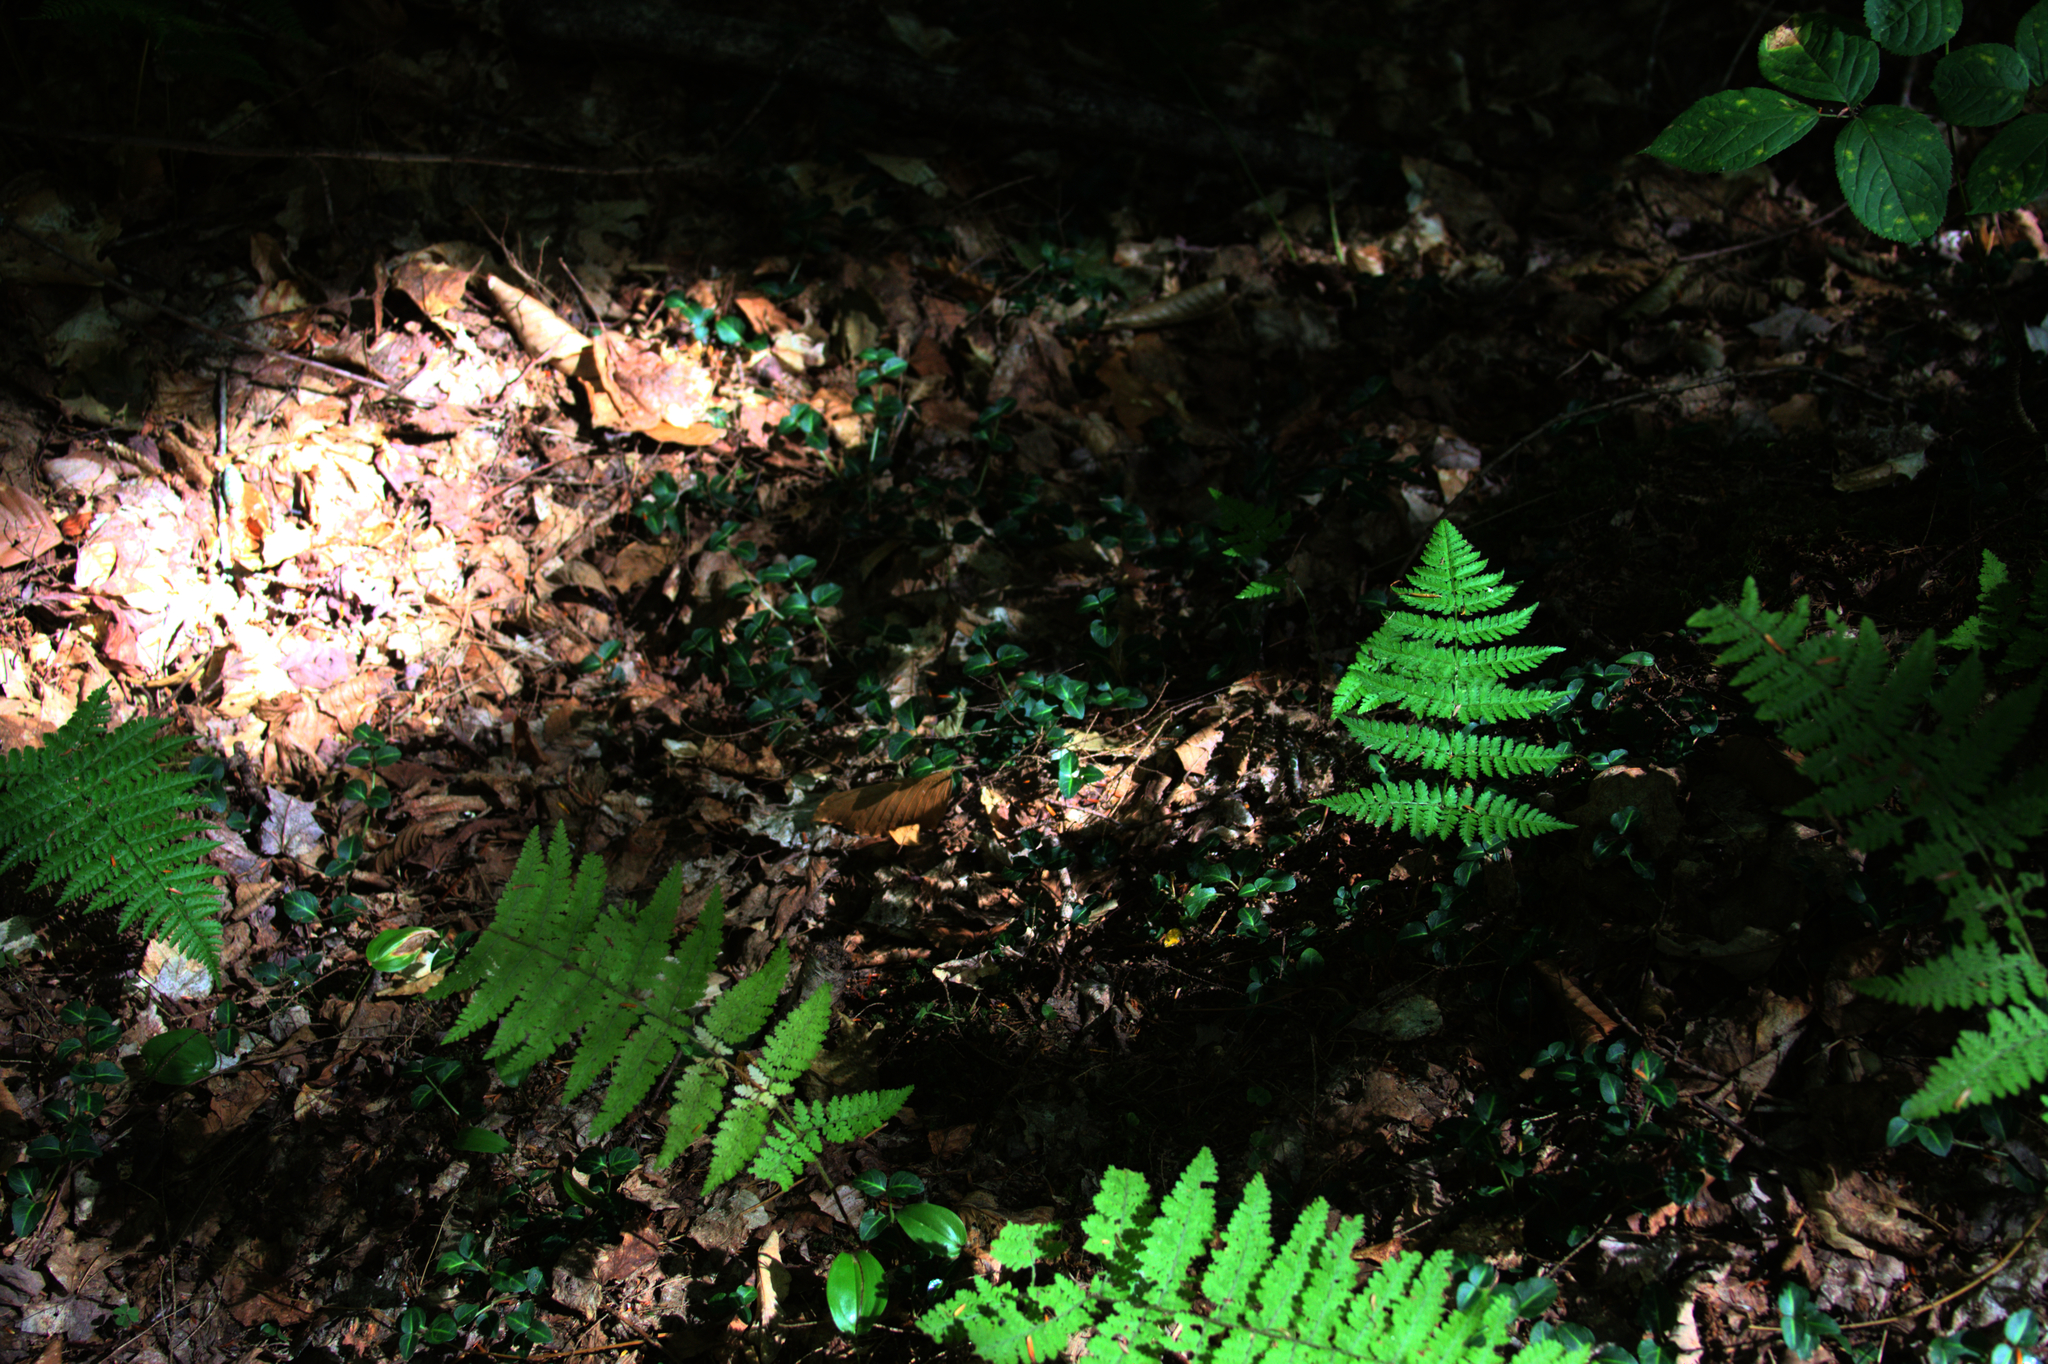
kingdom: Plantae
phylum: Tracheophyta
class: Magnoliopsida
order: Gentianales
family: Rubiaceae
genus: Mitchella
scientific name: Mitchella repens
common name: Partridge-berry
